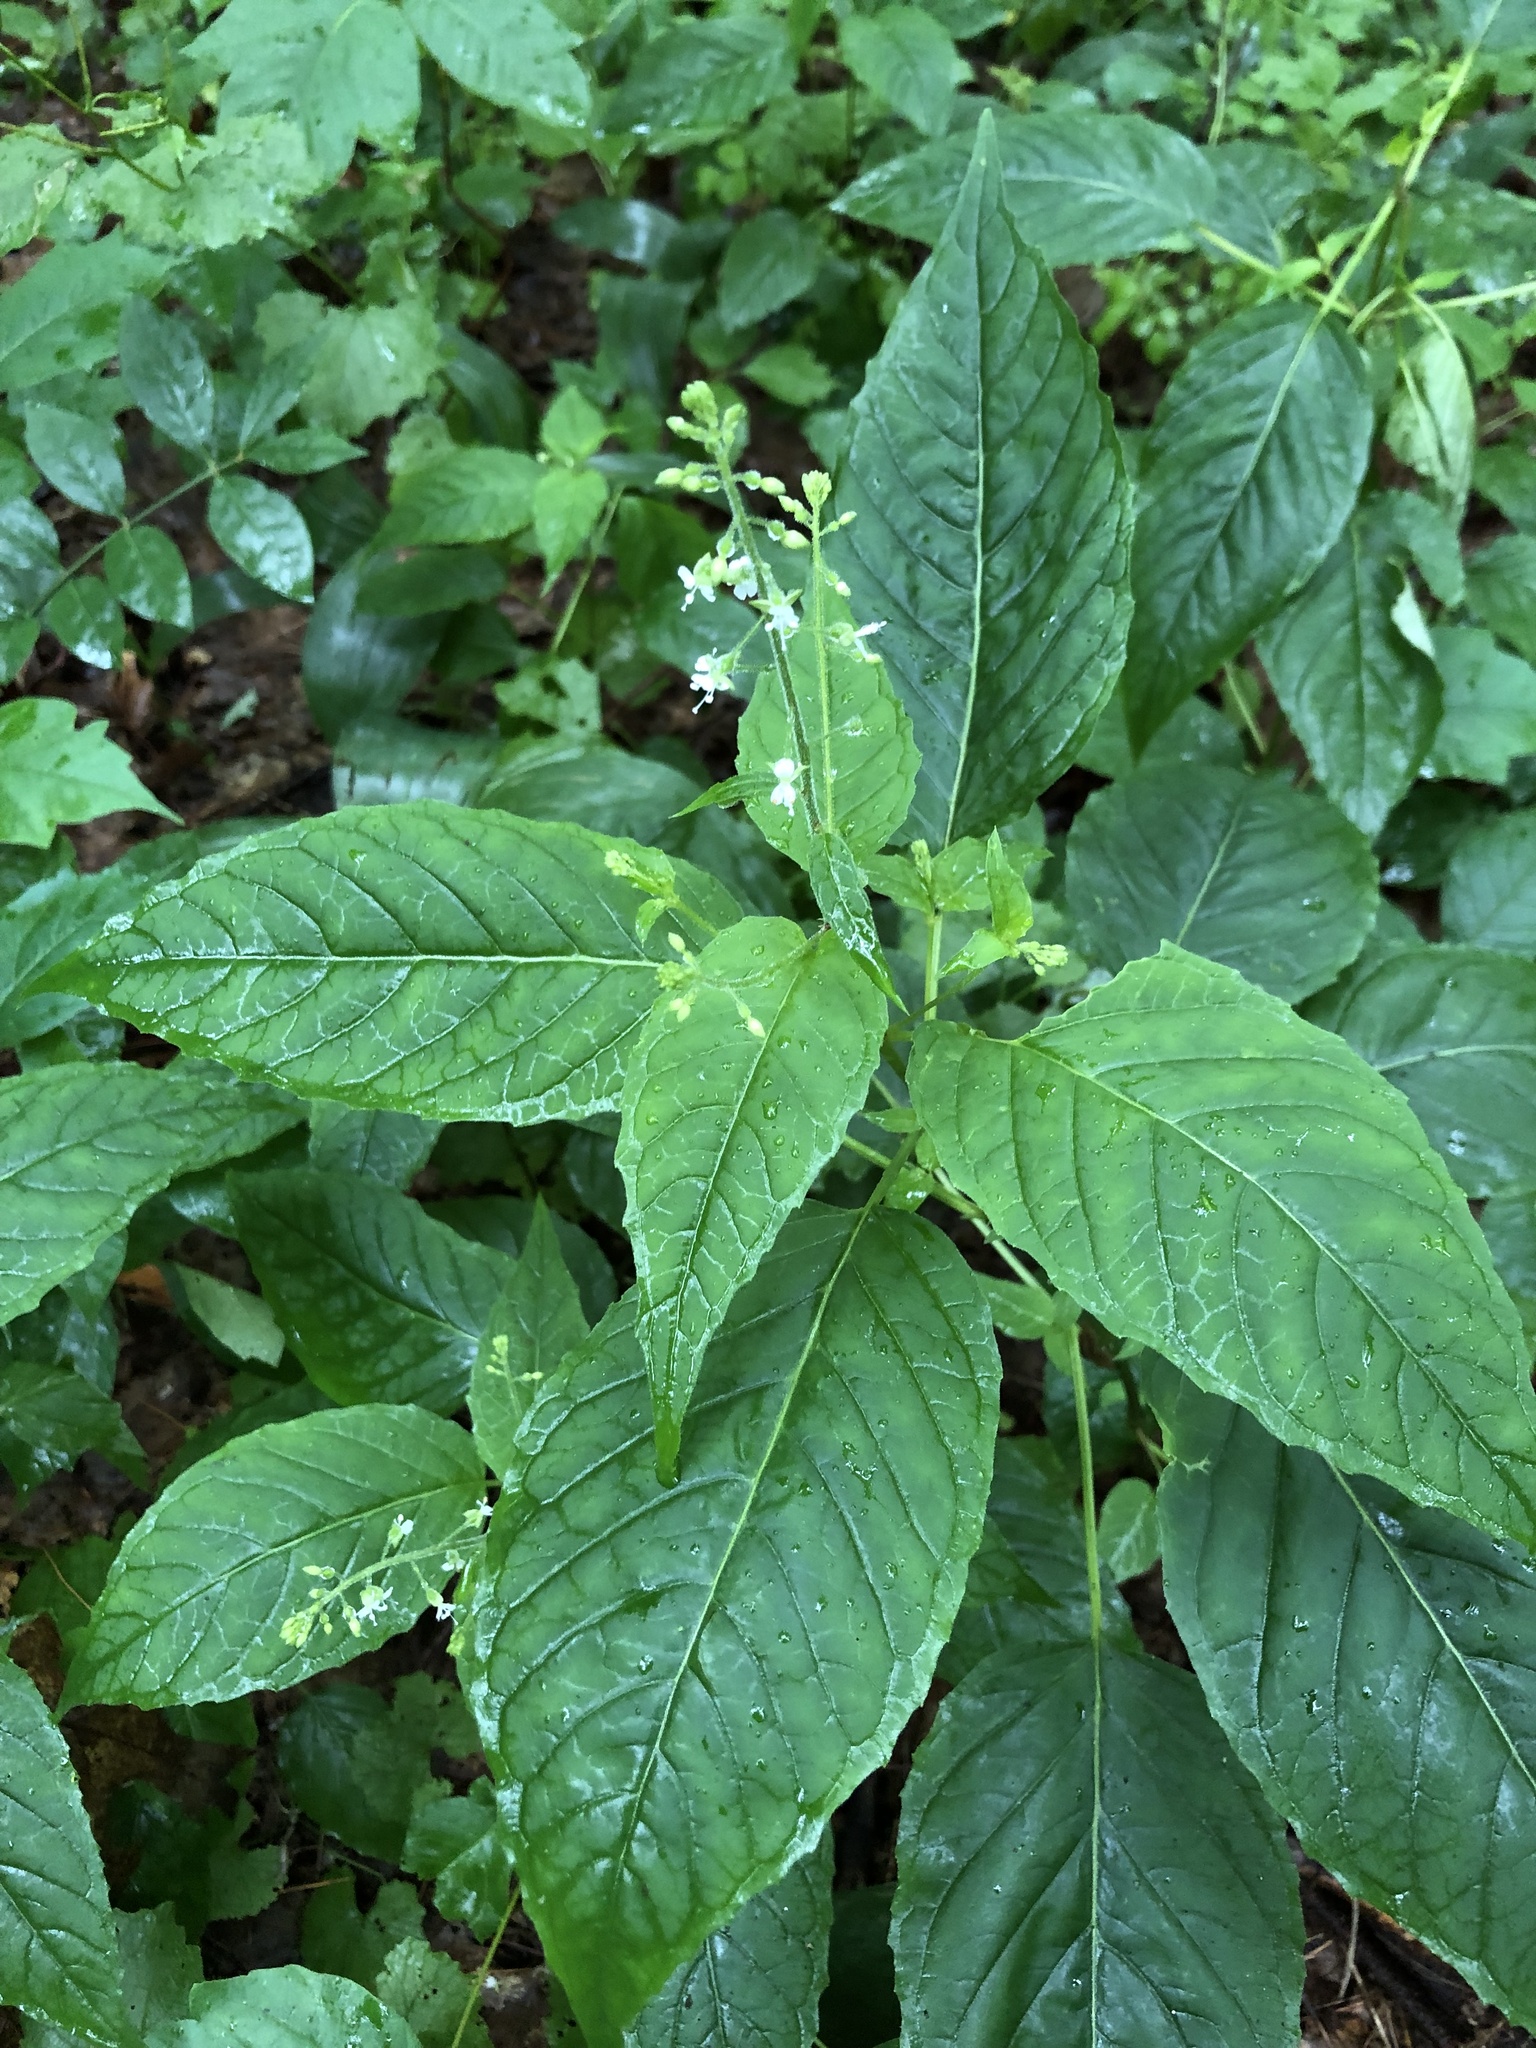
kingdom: Plantae
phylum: Tracheophyta
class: Magnoliopsida
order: Myrtales
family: Onagraceae
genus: Circaea
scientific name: Circaea canadensis
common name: Broad-leaved enchanter's nightshade
